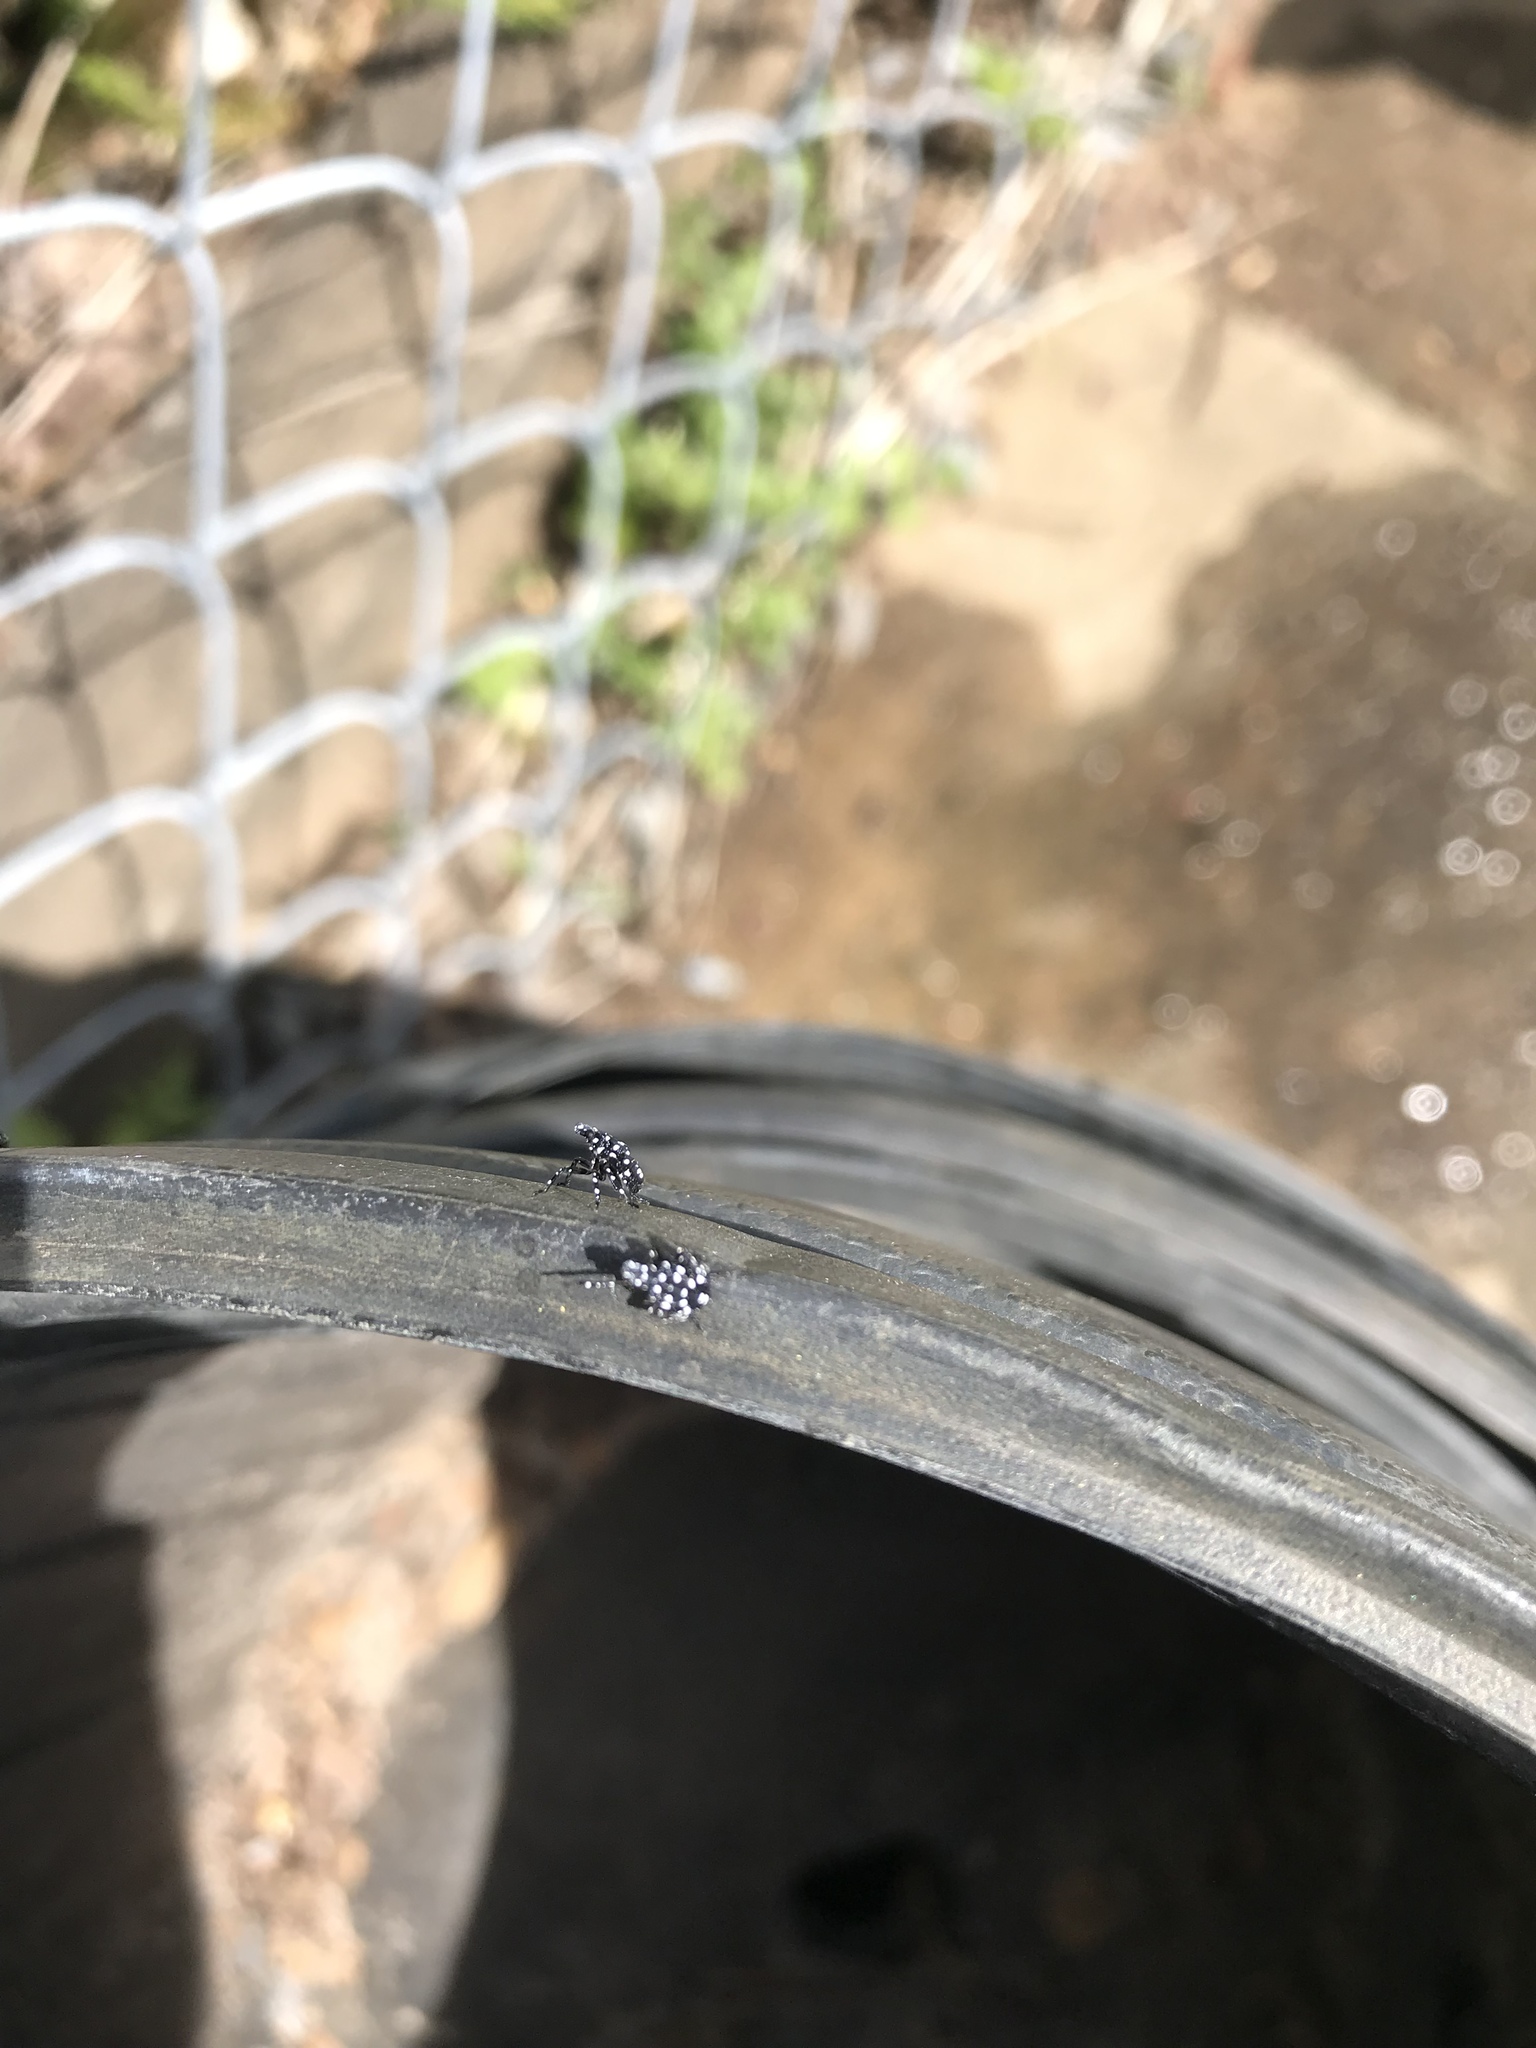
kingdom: Animalia
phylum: Arthropoda
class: Insecta
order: Hemiptera
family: Fulgoridae
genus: Lycorma
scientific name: Lycorma delicatula
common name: Spotted lanternfly
